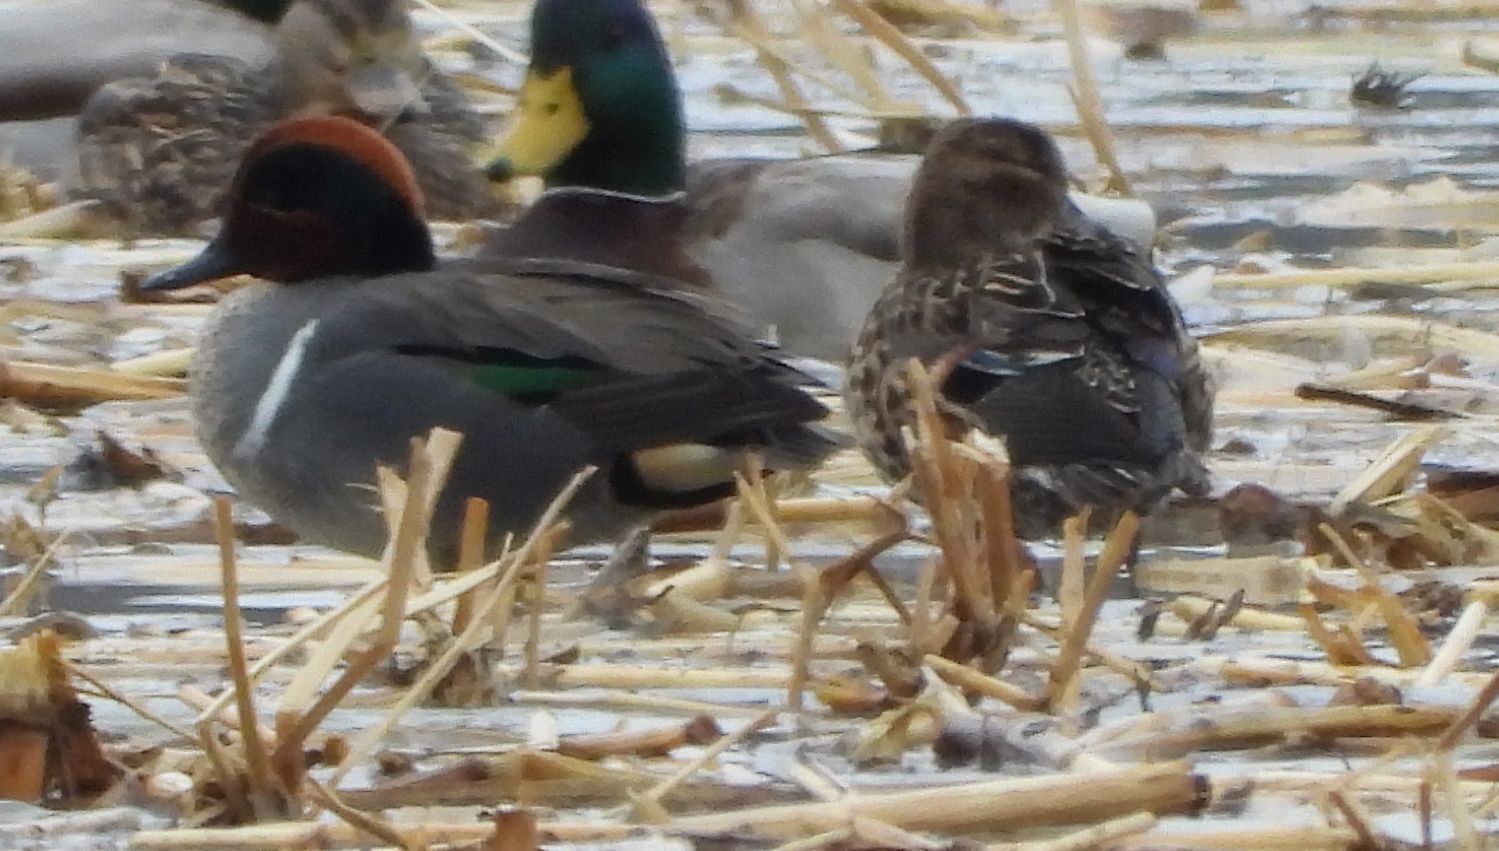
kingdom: Animalia
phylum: Chordata
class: Aves
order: Anseriformes
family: Anatidae
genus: Anas
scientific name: Anas crecca
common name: Eurasian teal
